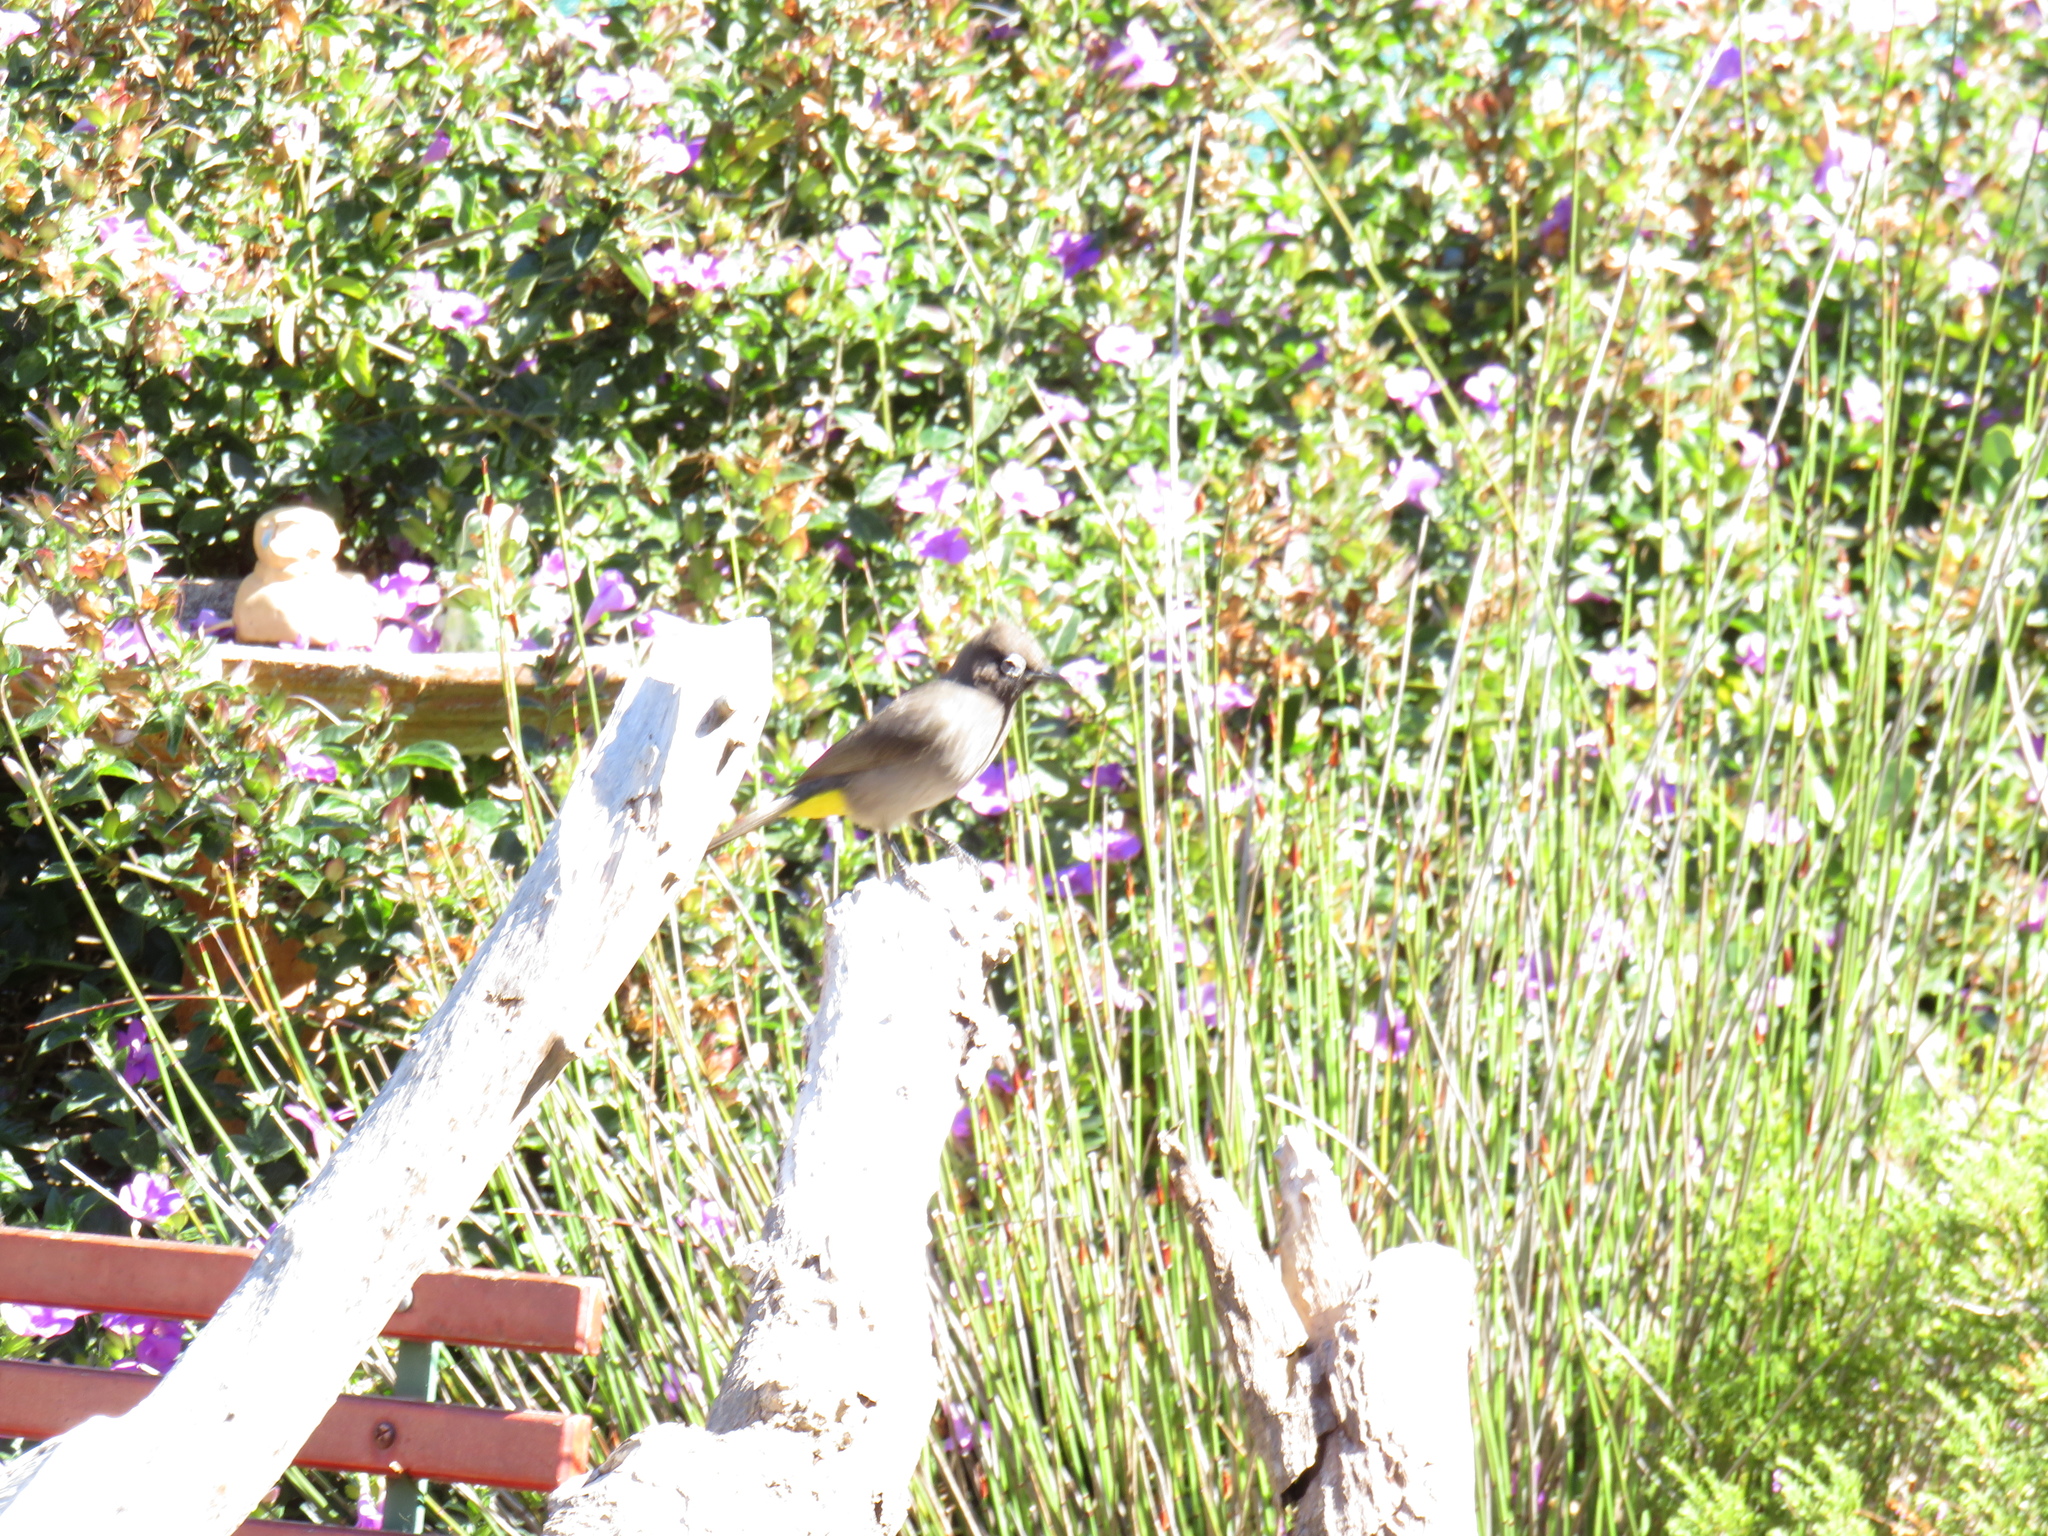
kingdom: Animalia
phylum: Chordata
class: Aves
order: Passeriformes
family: Pycnonotidae
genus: Pycnonotus
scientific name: Pycnonotus capensis
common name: Cape bulbul
